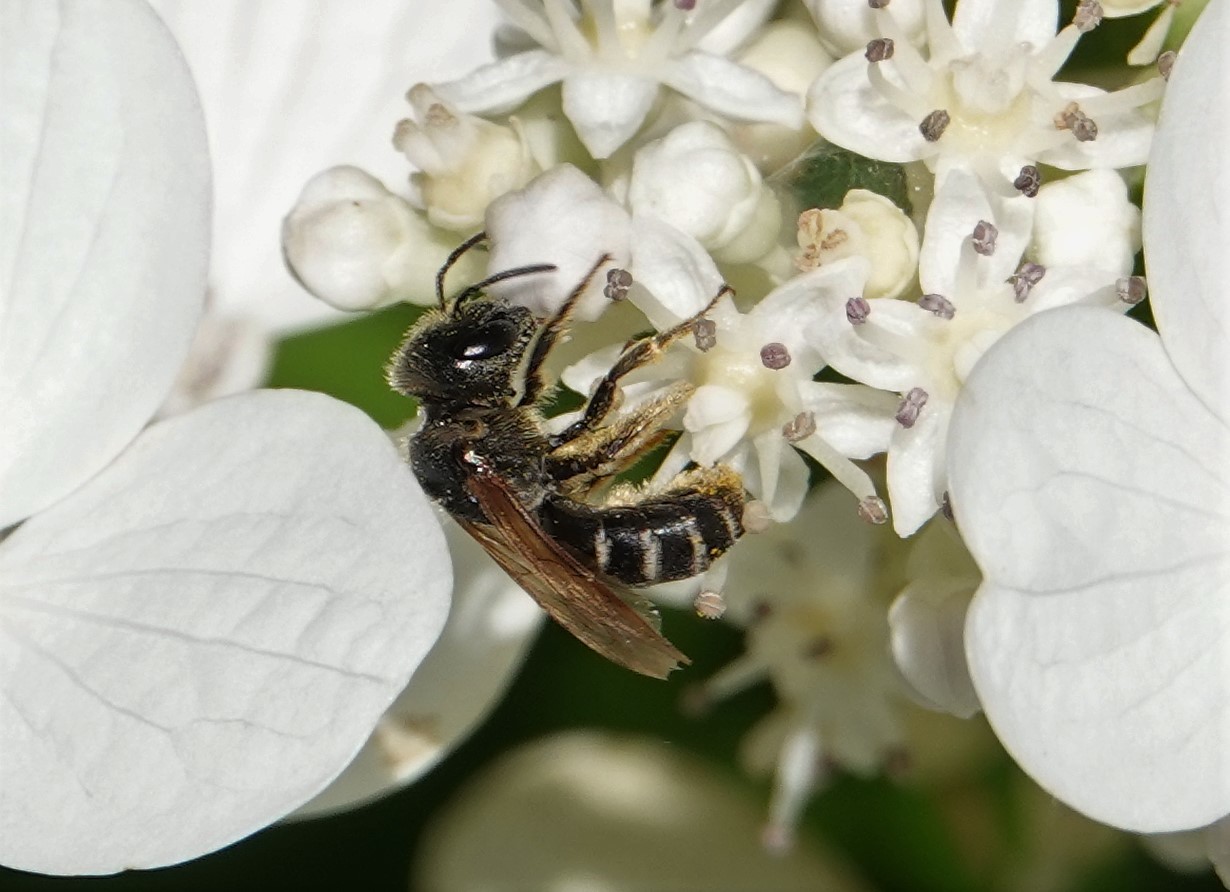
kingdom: Animalia
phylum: Arthropoda
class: Insecta
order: Hymenoptera
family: Halictidae
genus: Halictus
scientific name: Halictus ligatus
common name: Ligated furrow bee
